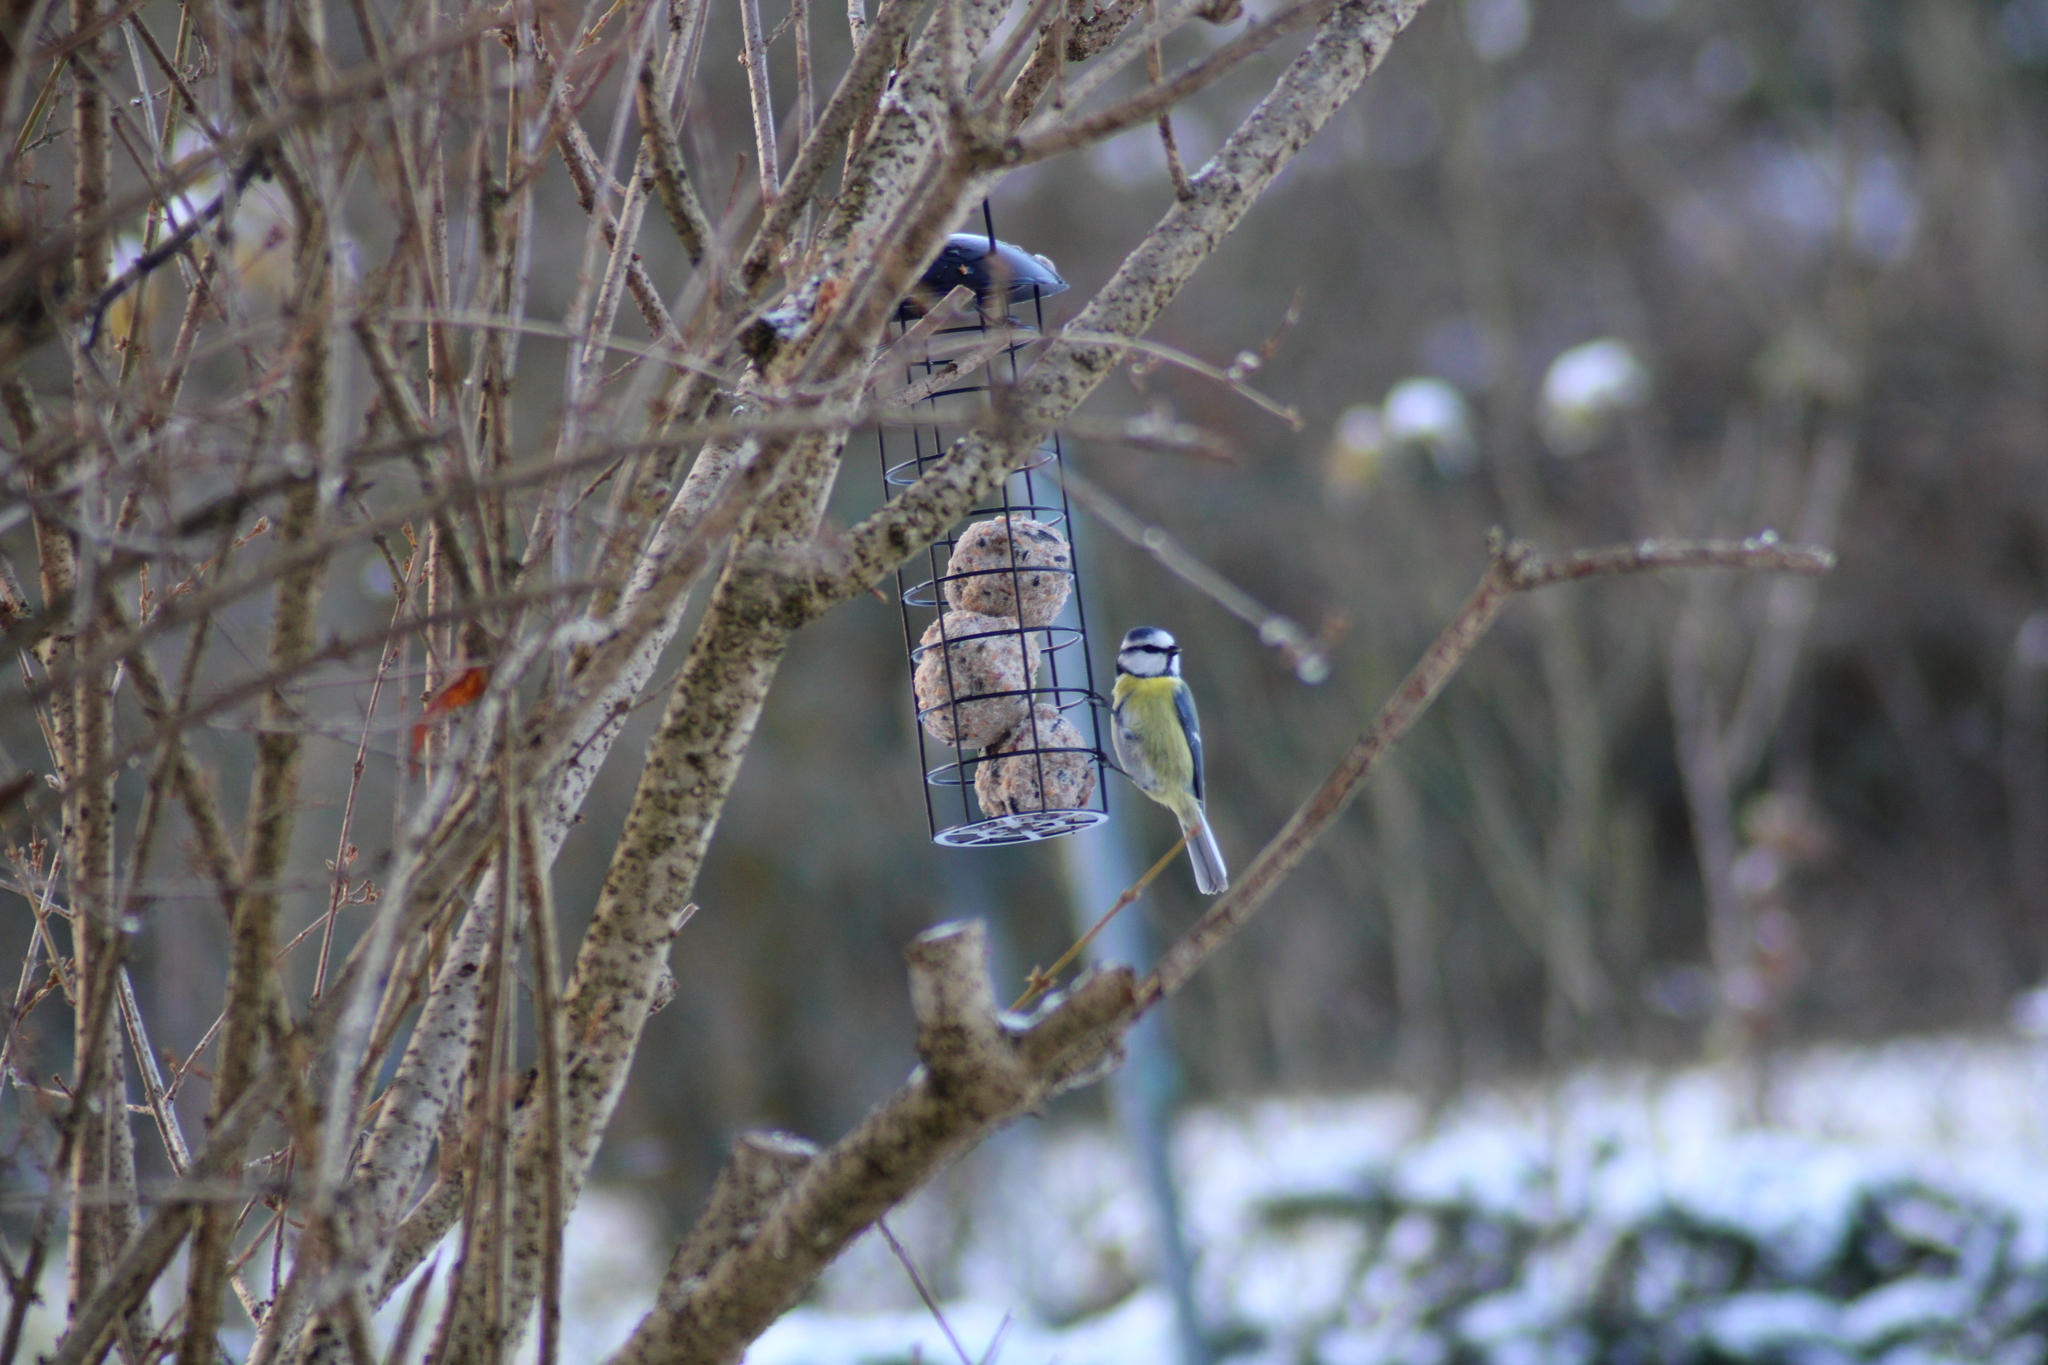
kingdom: Animalia
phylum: Chordata
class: Aves
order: Passeriformes
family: Paridae
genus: Cyanistes
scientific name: Cyanistes caeruleus
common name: Eurasian blue tit
